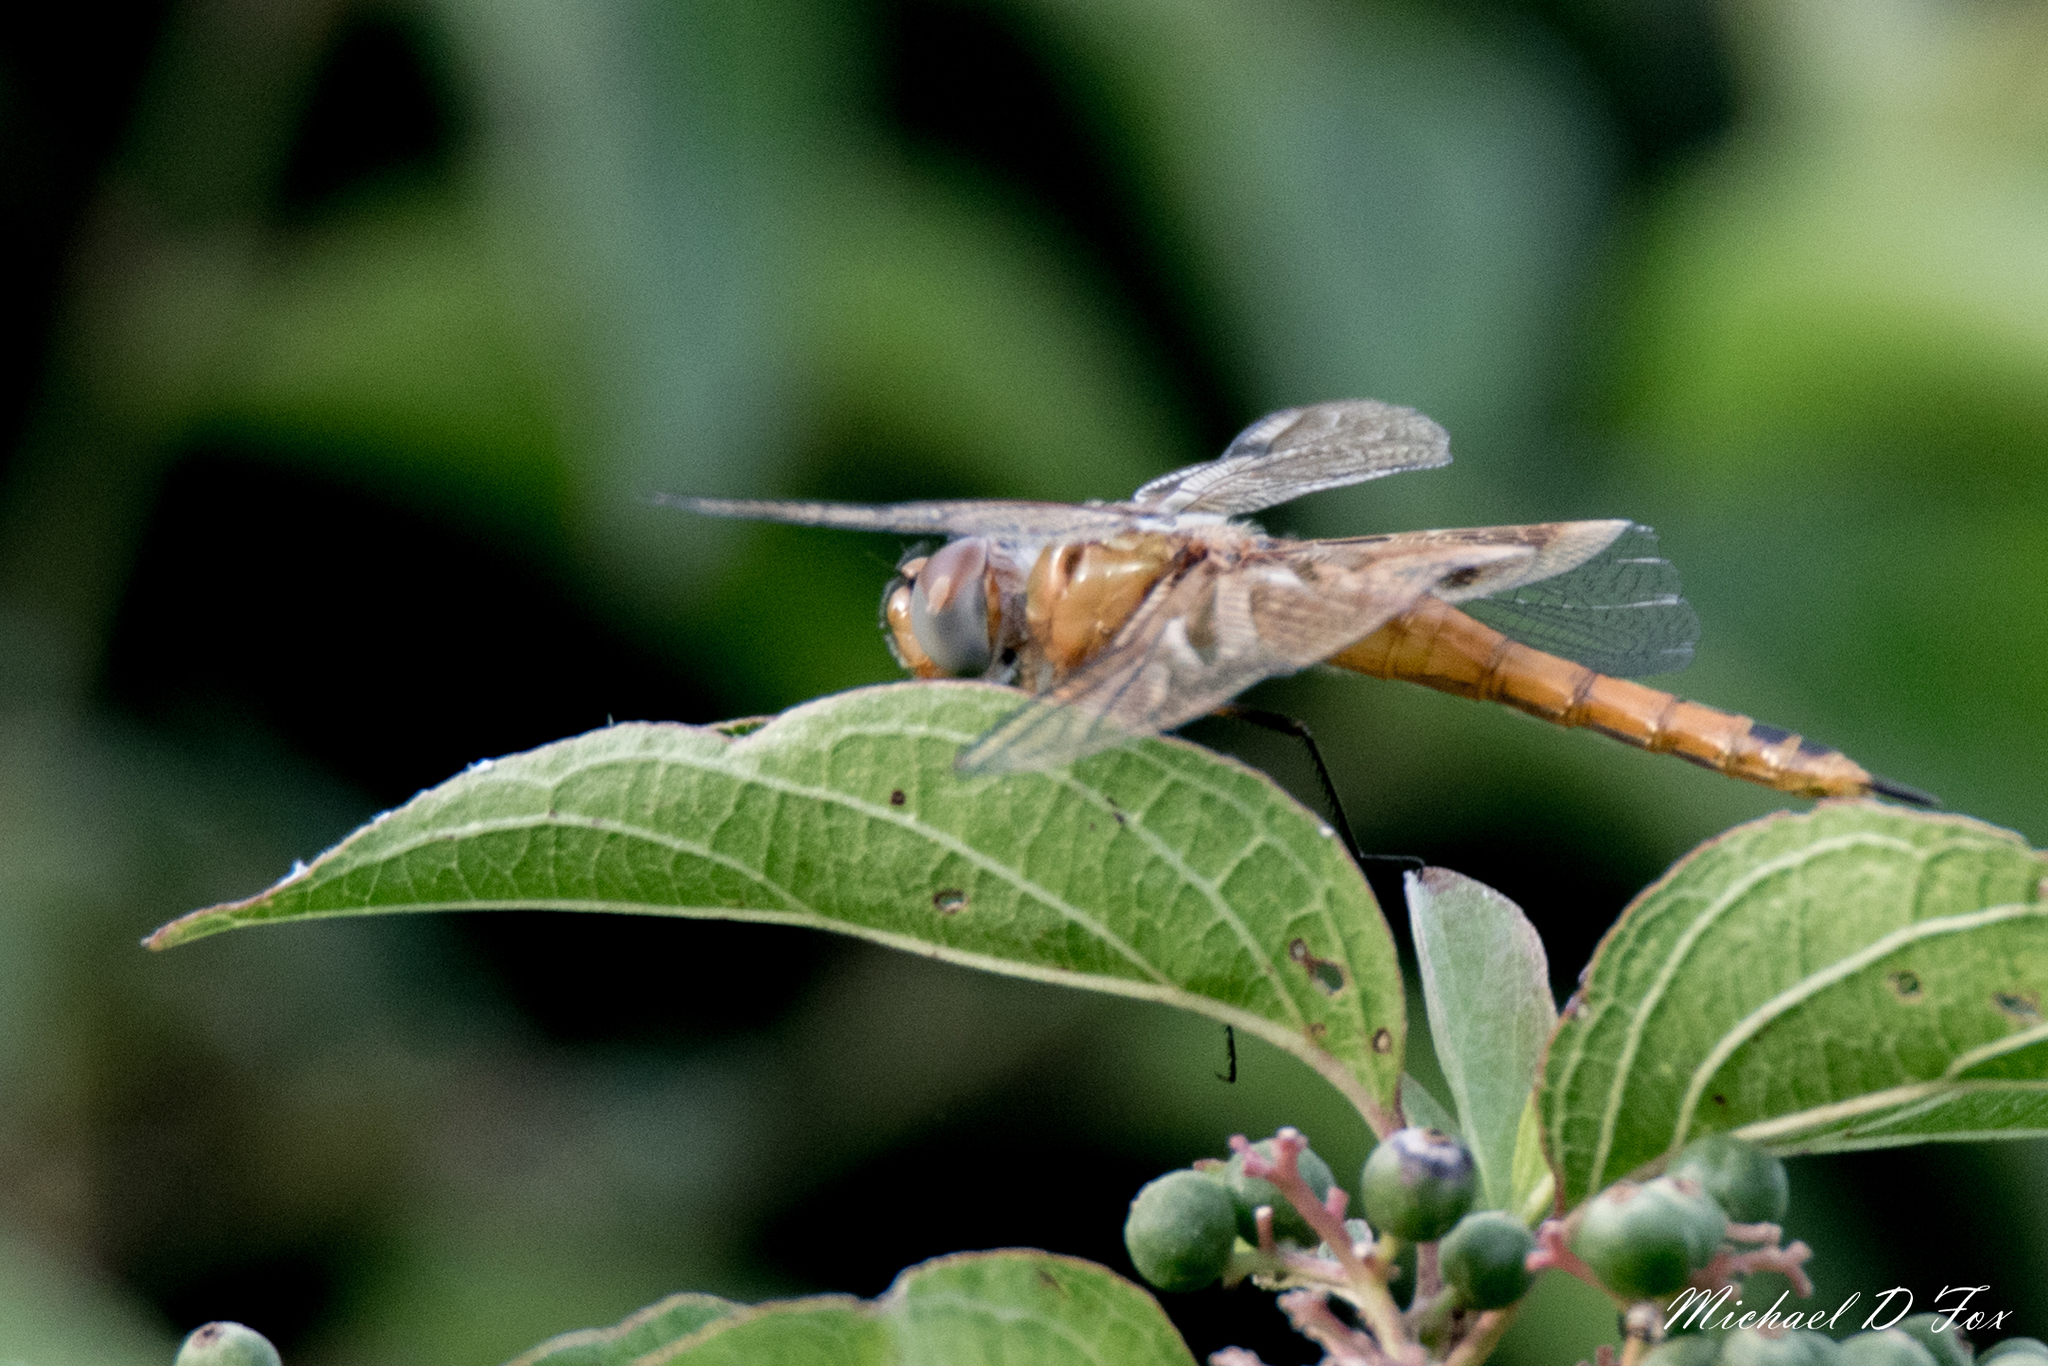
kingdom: Animalia
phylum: Arthropoda
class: Insecta
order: Odonata
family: Libellulidae
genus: Tramea
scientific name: Tramea onusta
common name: Red saddlebags
